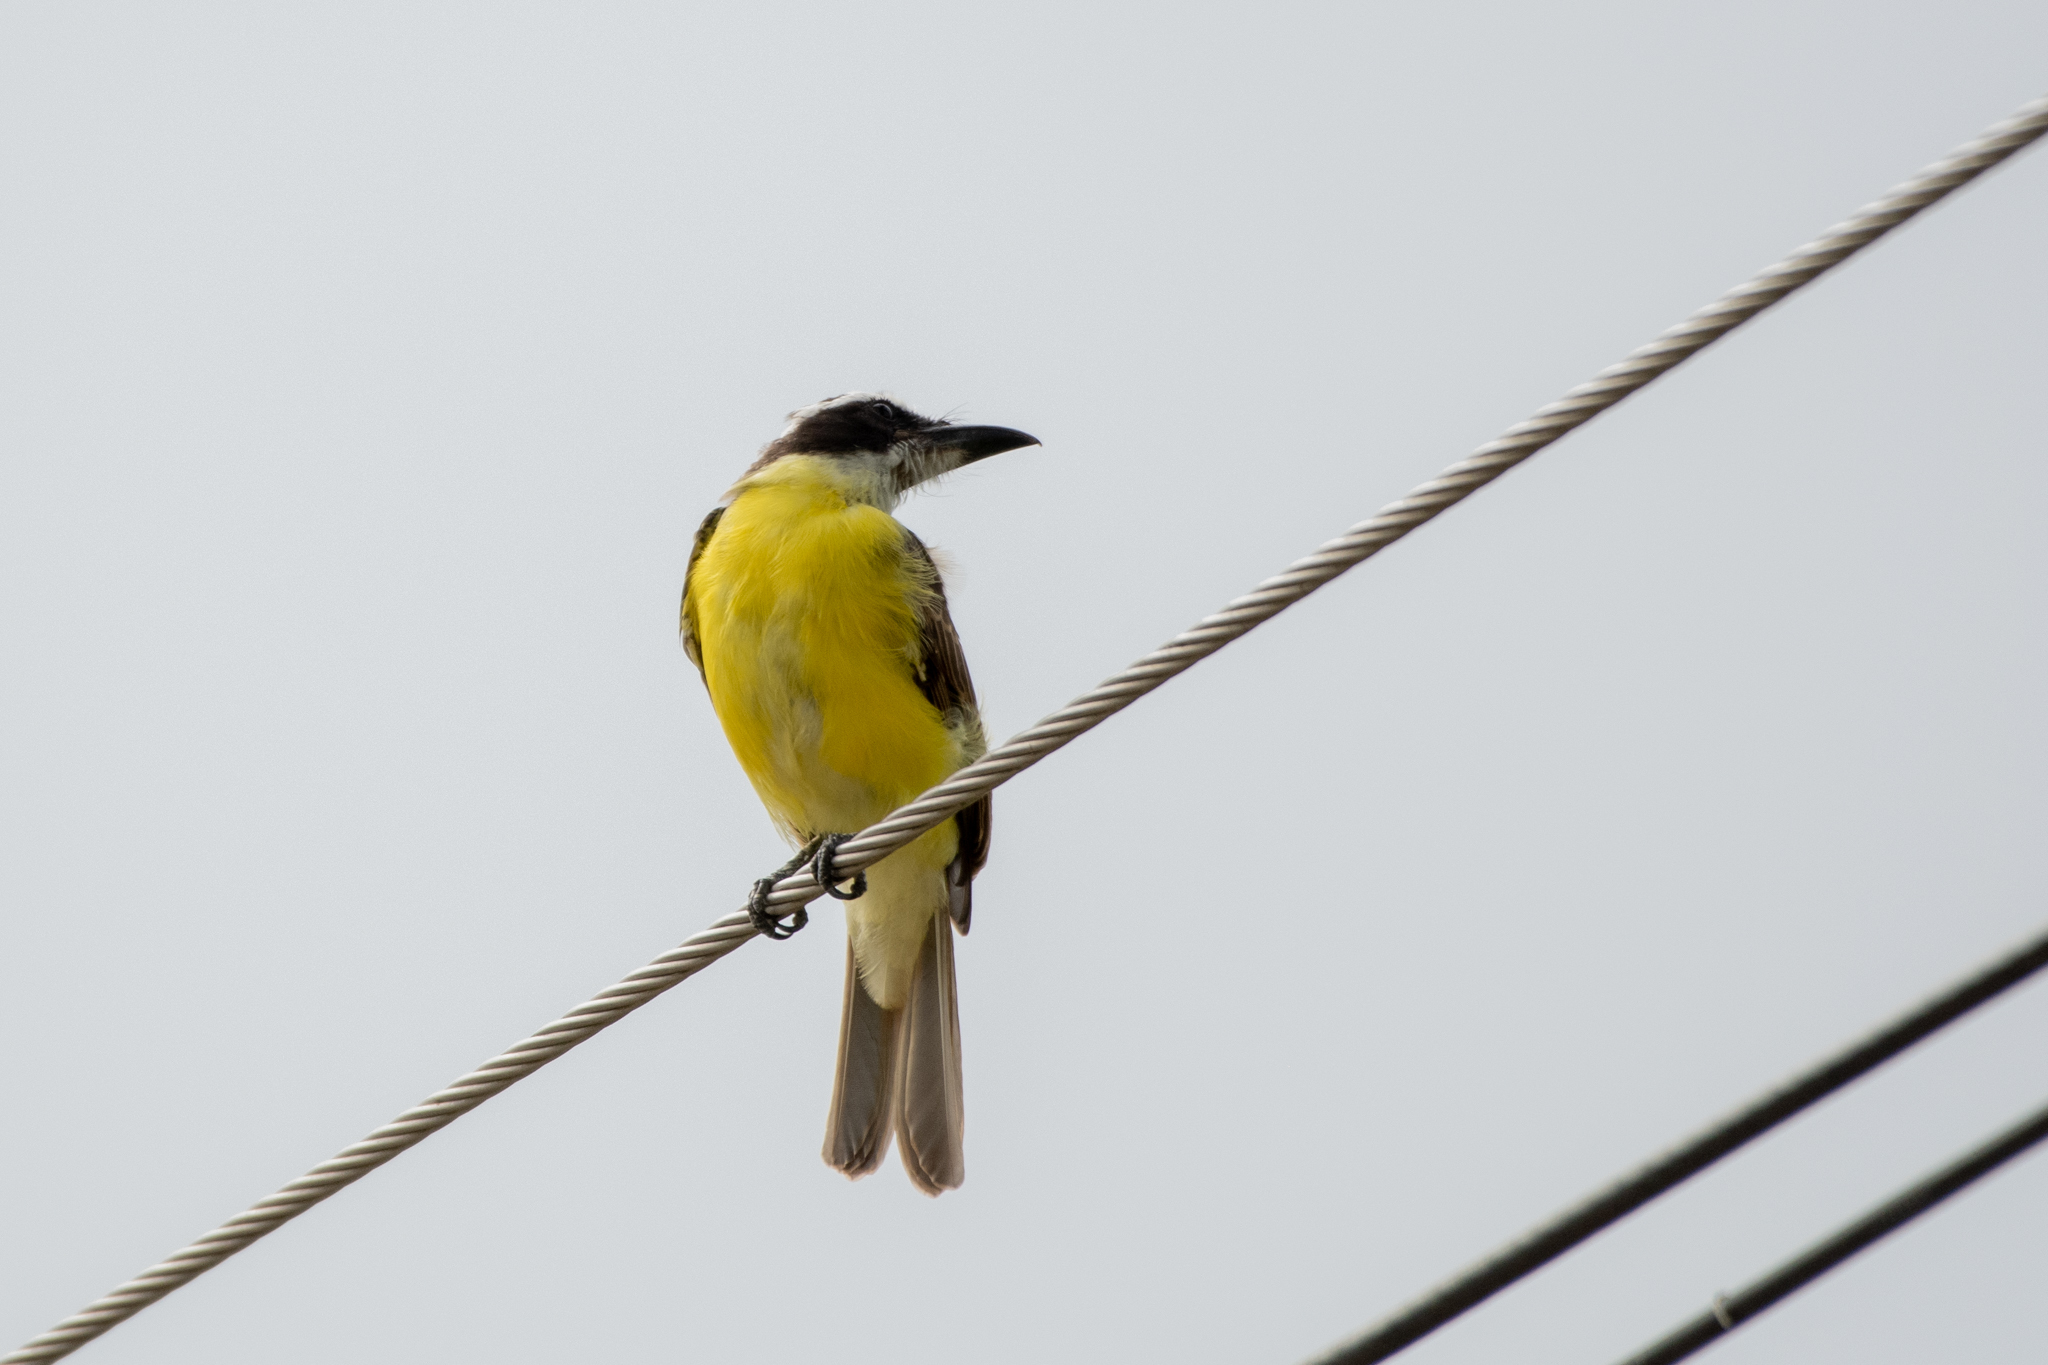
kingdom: Animalia
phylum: Chordata
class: Aves
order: Passeriformes
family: Tyrannidae
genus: Megarynchus
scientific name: Megarynchus pitangua
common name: Boat-billed flycatcher
